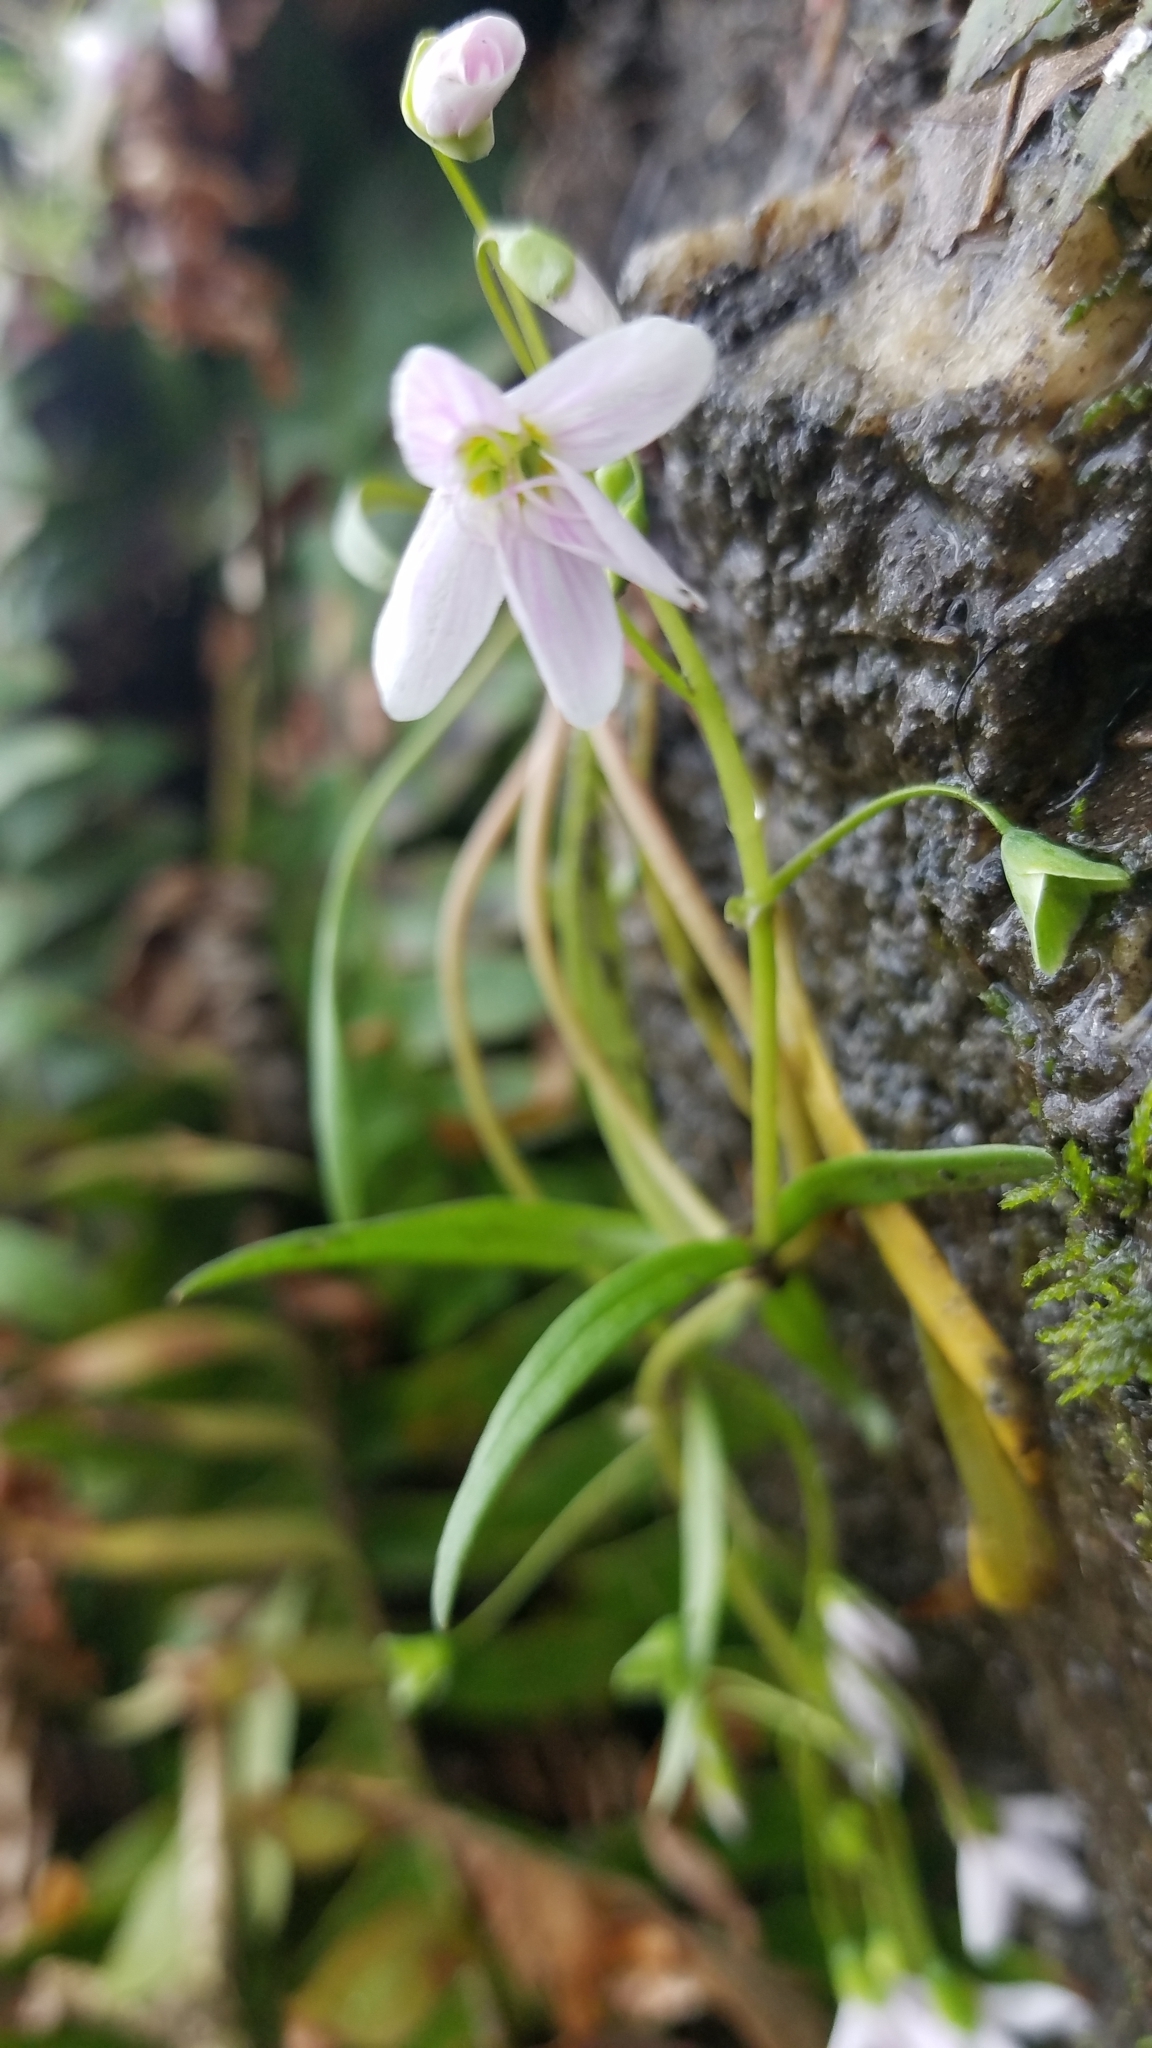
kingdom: Plantae
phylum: Tracheophyta
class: Magnoliopsida
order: Caryophyllales
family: Montiaceae
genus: Claytonia
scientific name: Claytonia virginica
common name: Virginia springbeauty
